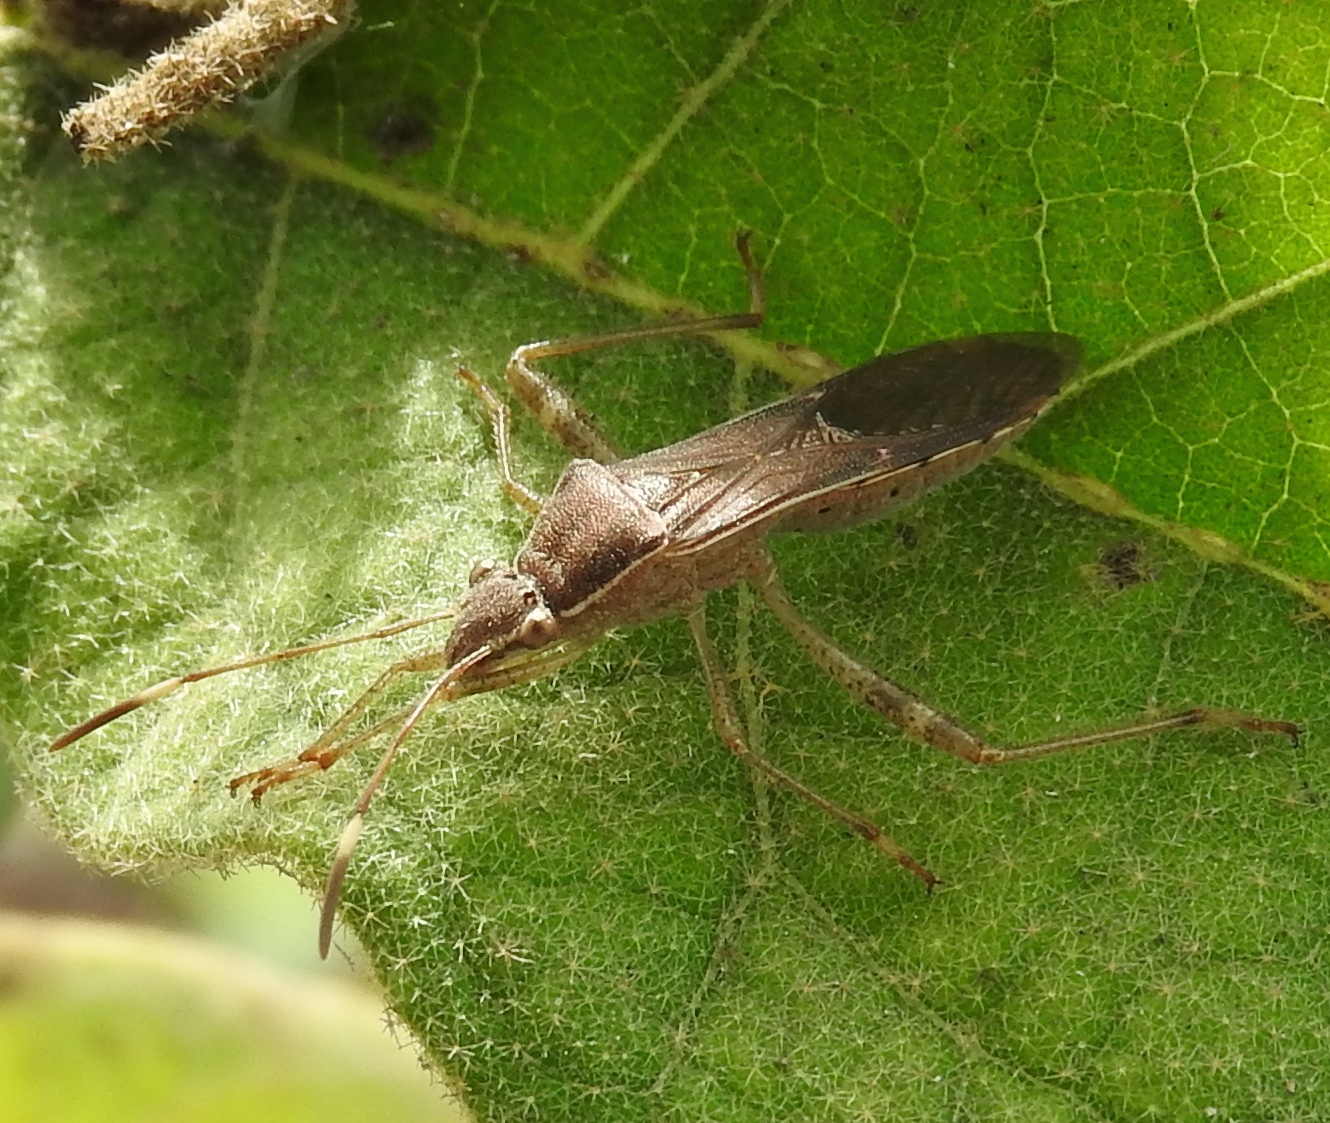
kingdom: Animalia
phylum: Arthropoda
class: Insecta
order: Hemiptera
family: Alydidae
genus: Burtinus
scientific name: Burtinus notatipennis
